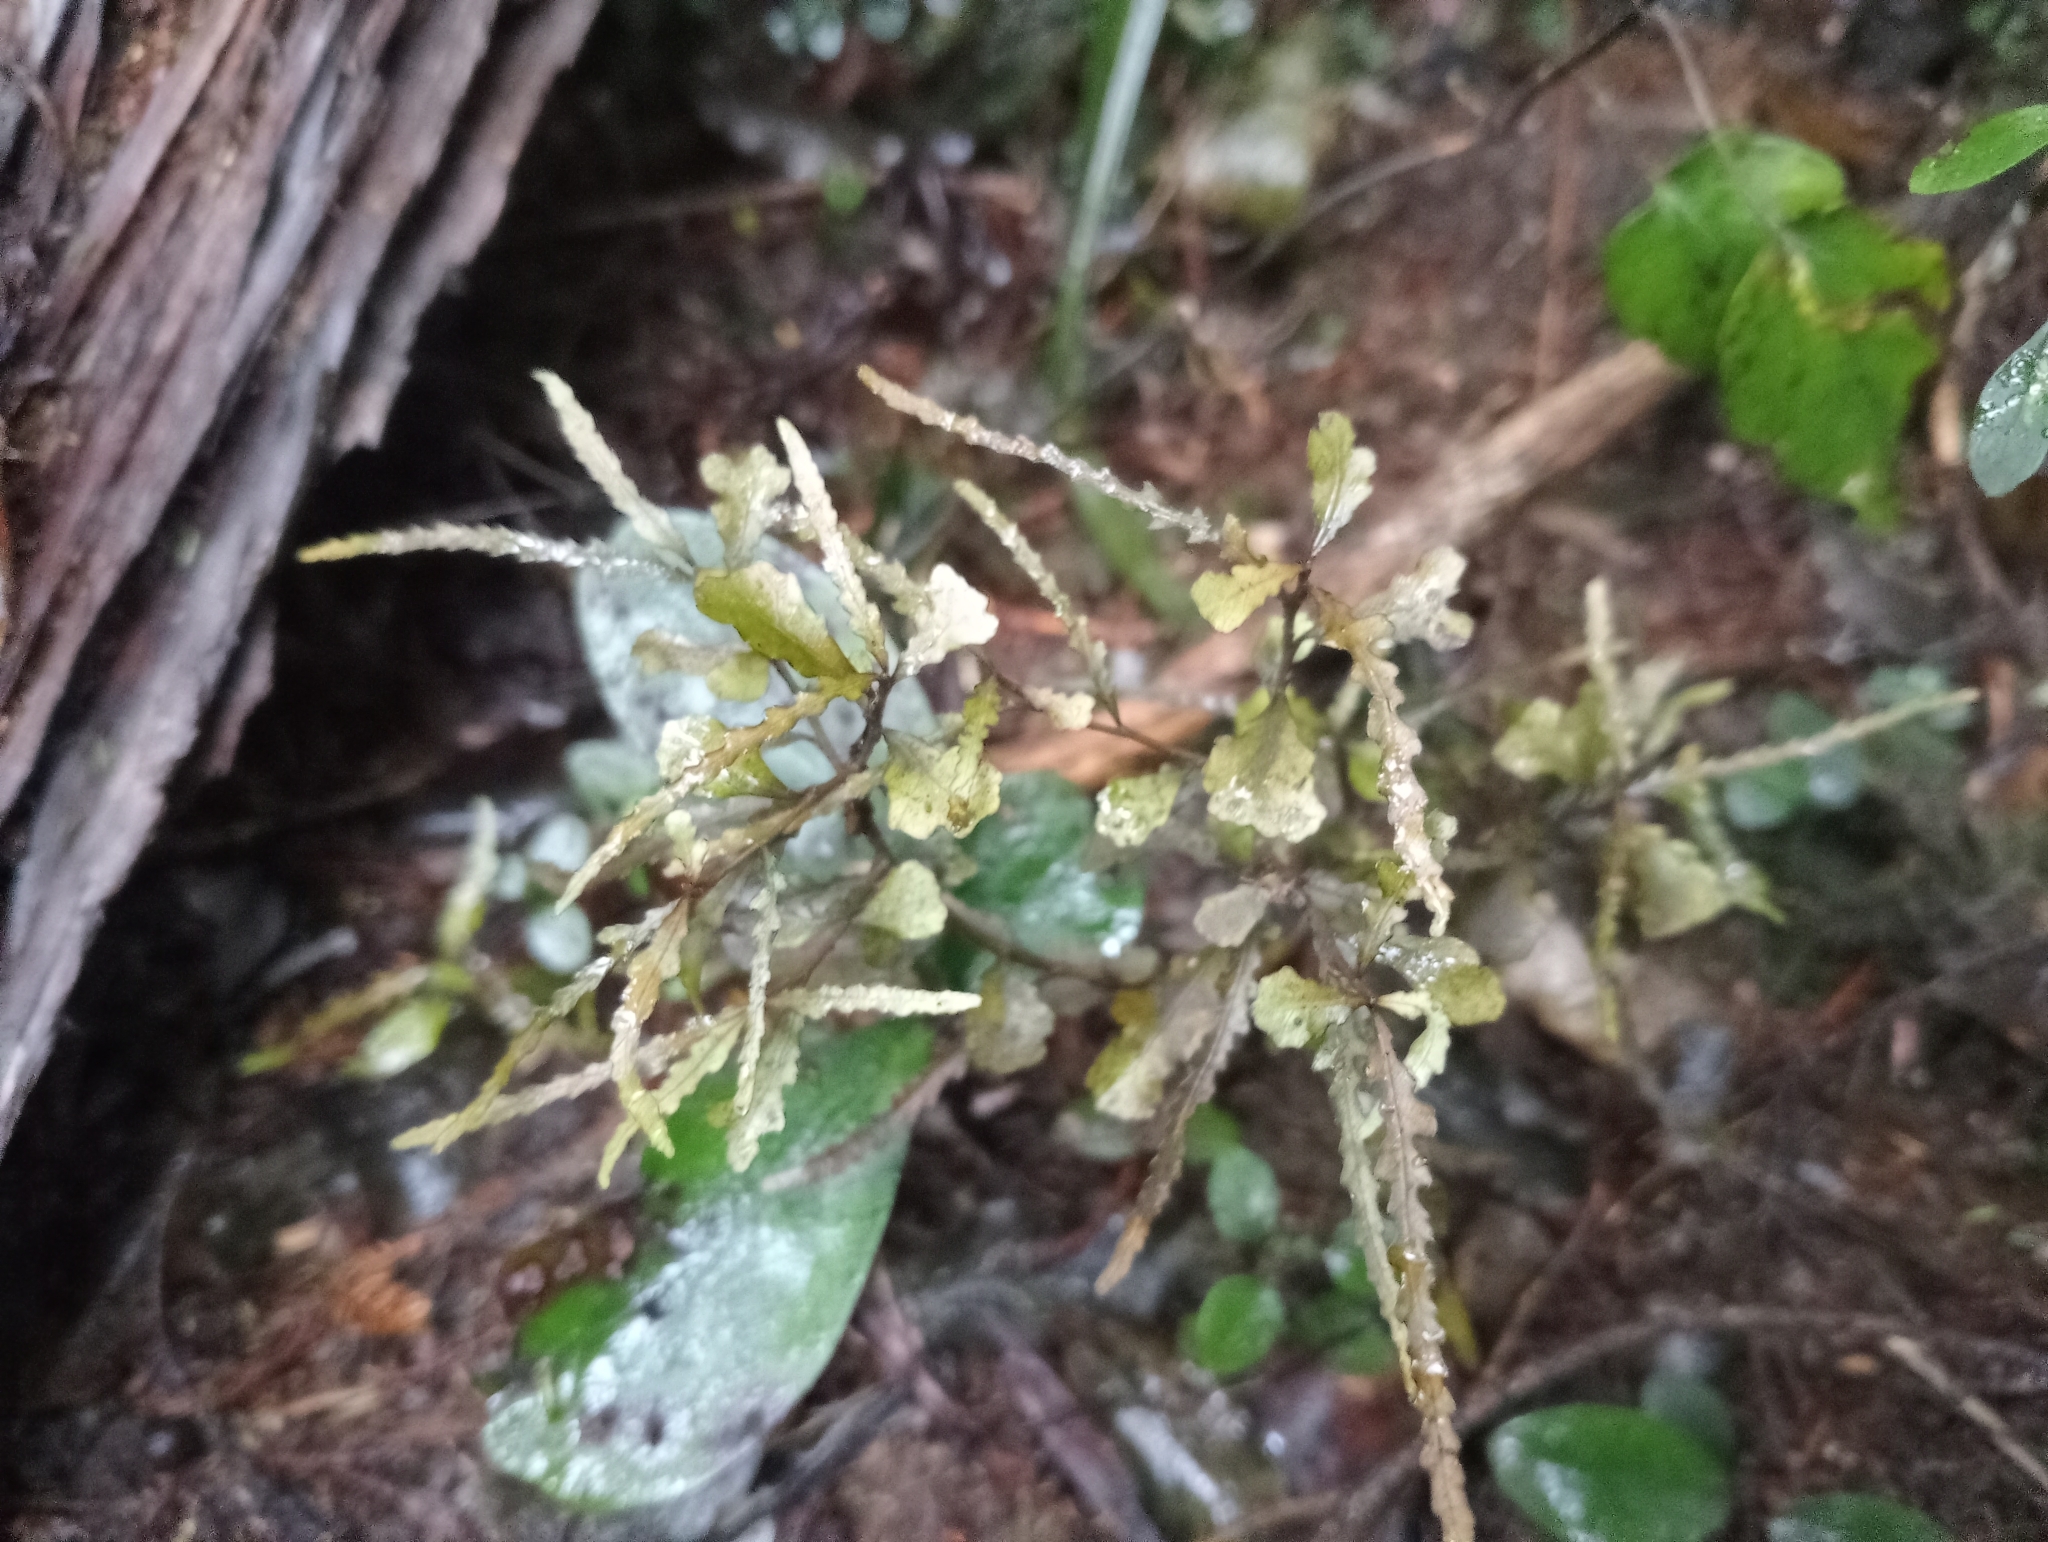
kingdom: Plantae
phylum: Tracheophyta
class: Magnoliopsida
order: Oxalidales
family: Elaeocarpaceae
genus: Elaeocarpus
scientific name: Elaeocarpus hookerianus
